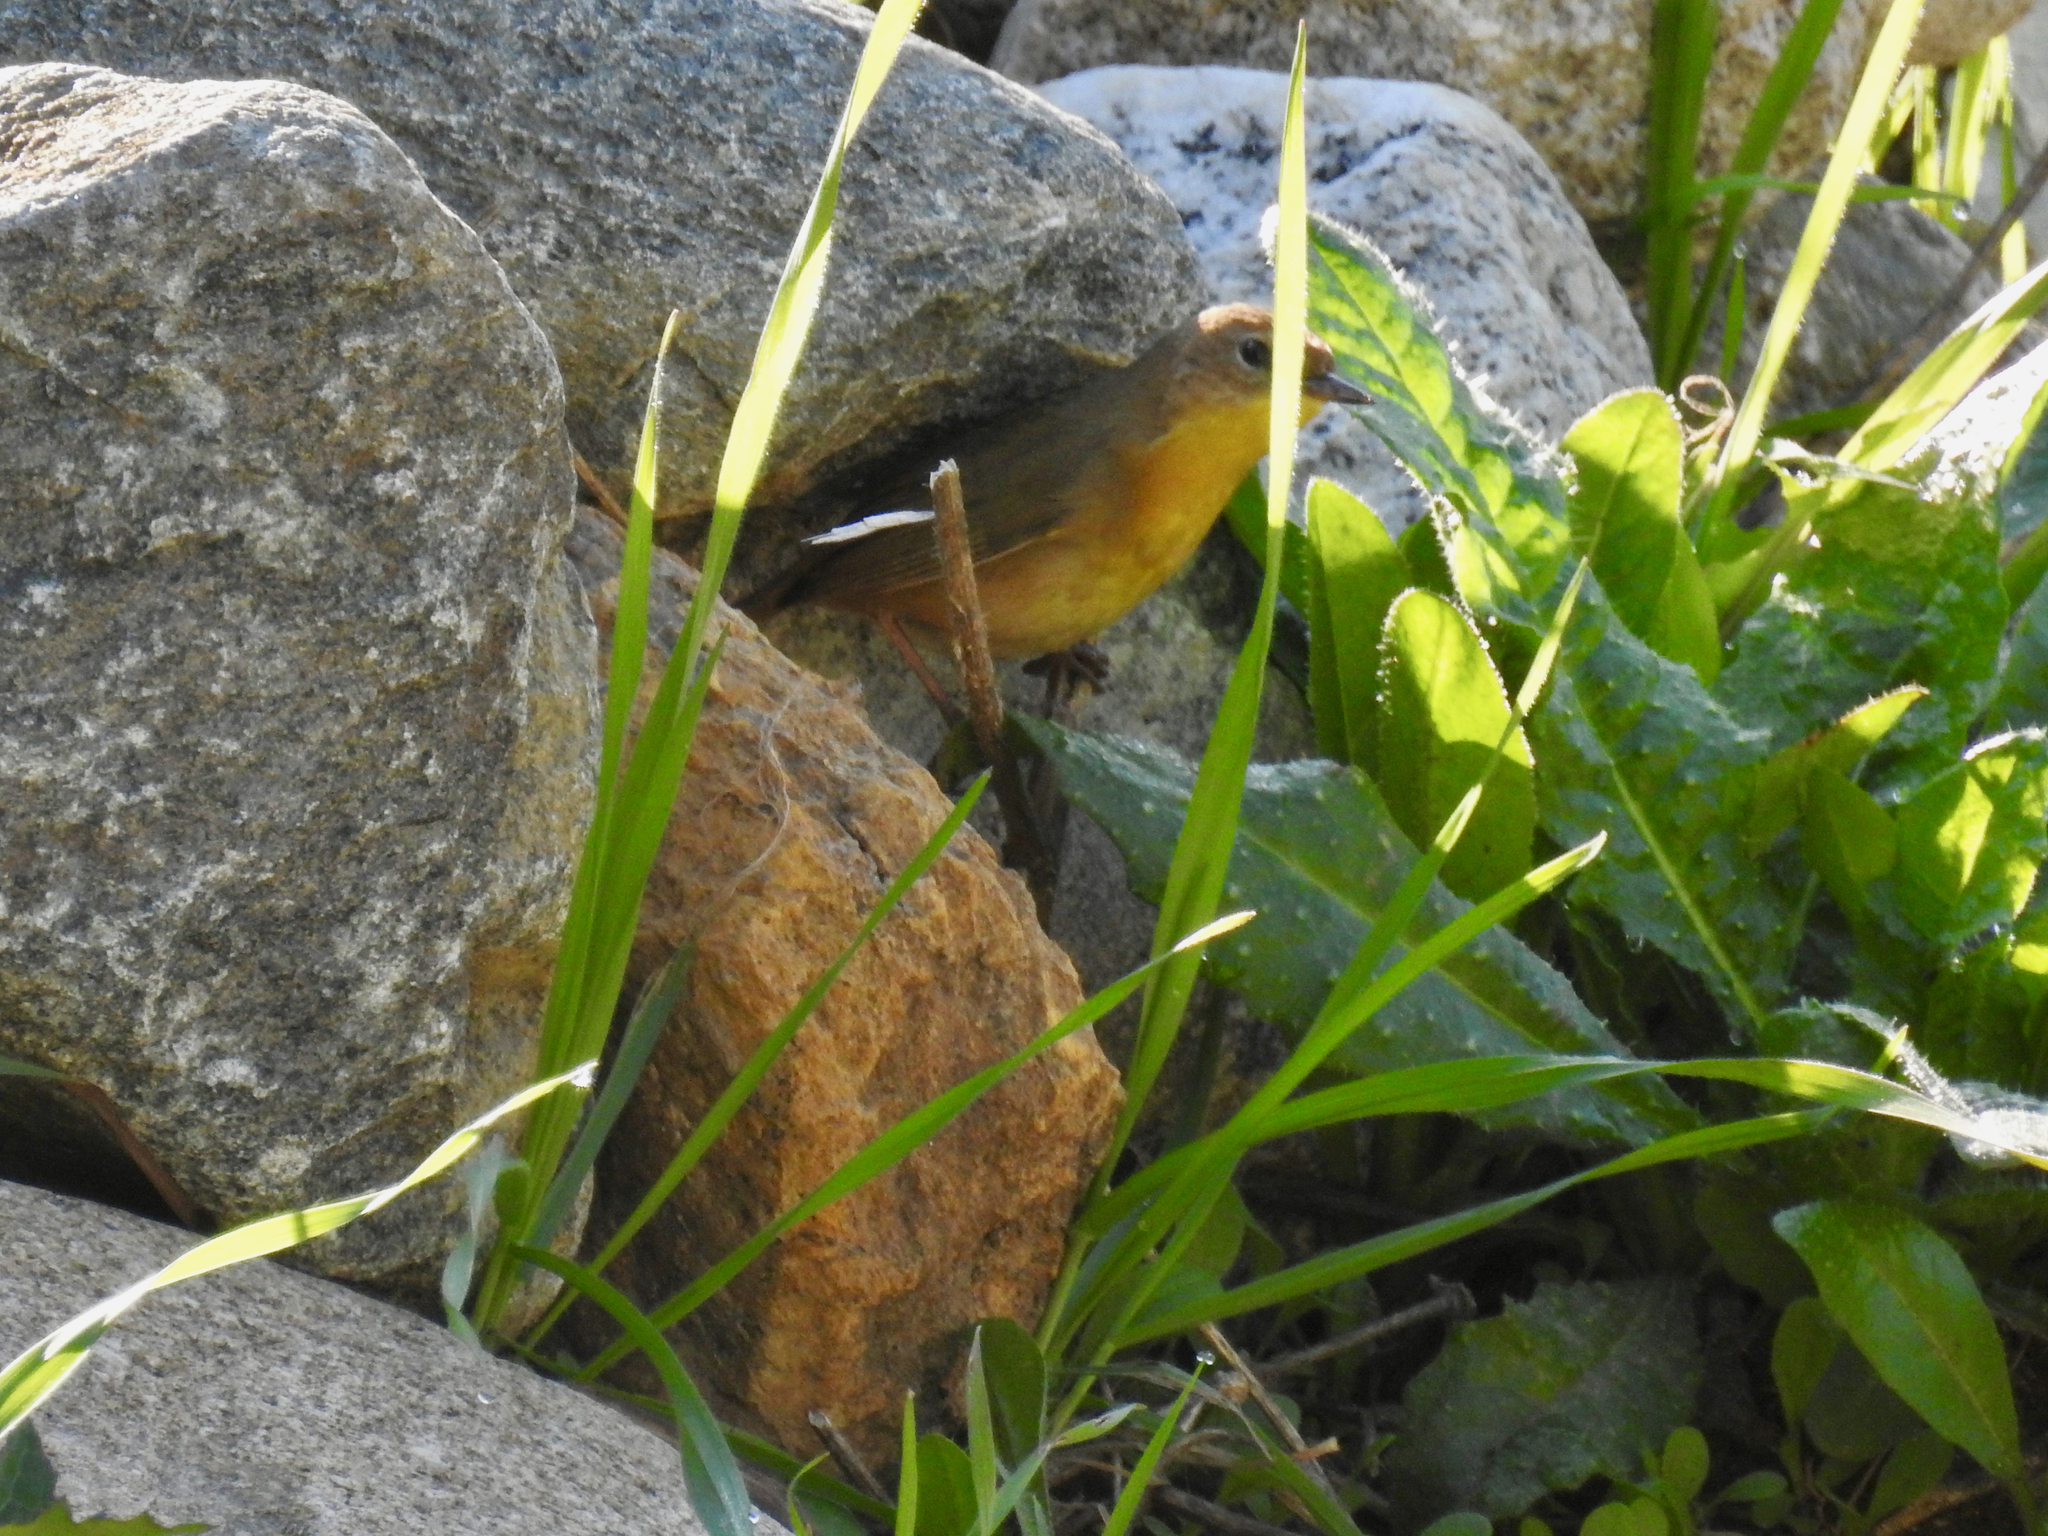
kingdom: Animalia
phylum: Chordata
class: Aves
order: Passeriformes
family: Parulidae
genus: Geothlypis
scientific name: Geothlypis trichas
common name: Common yellowthroat
